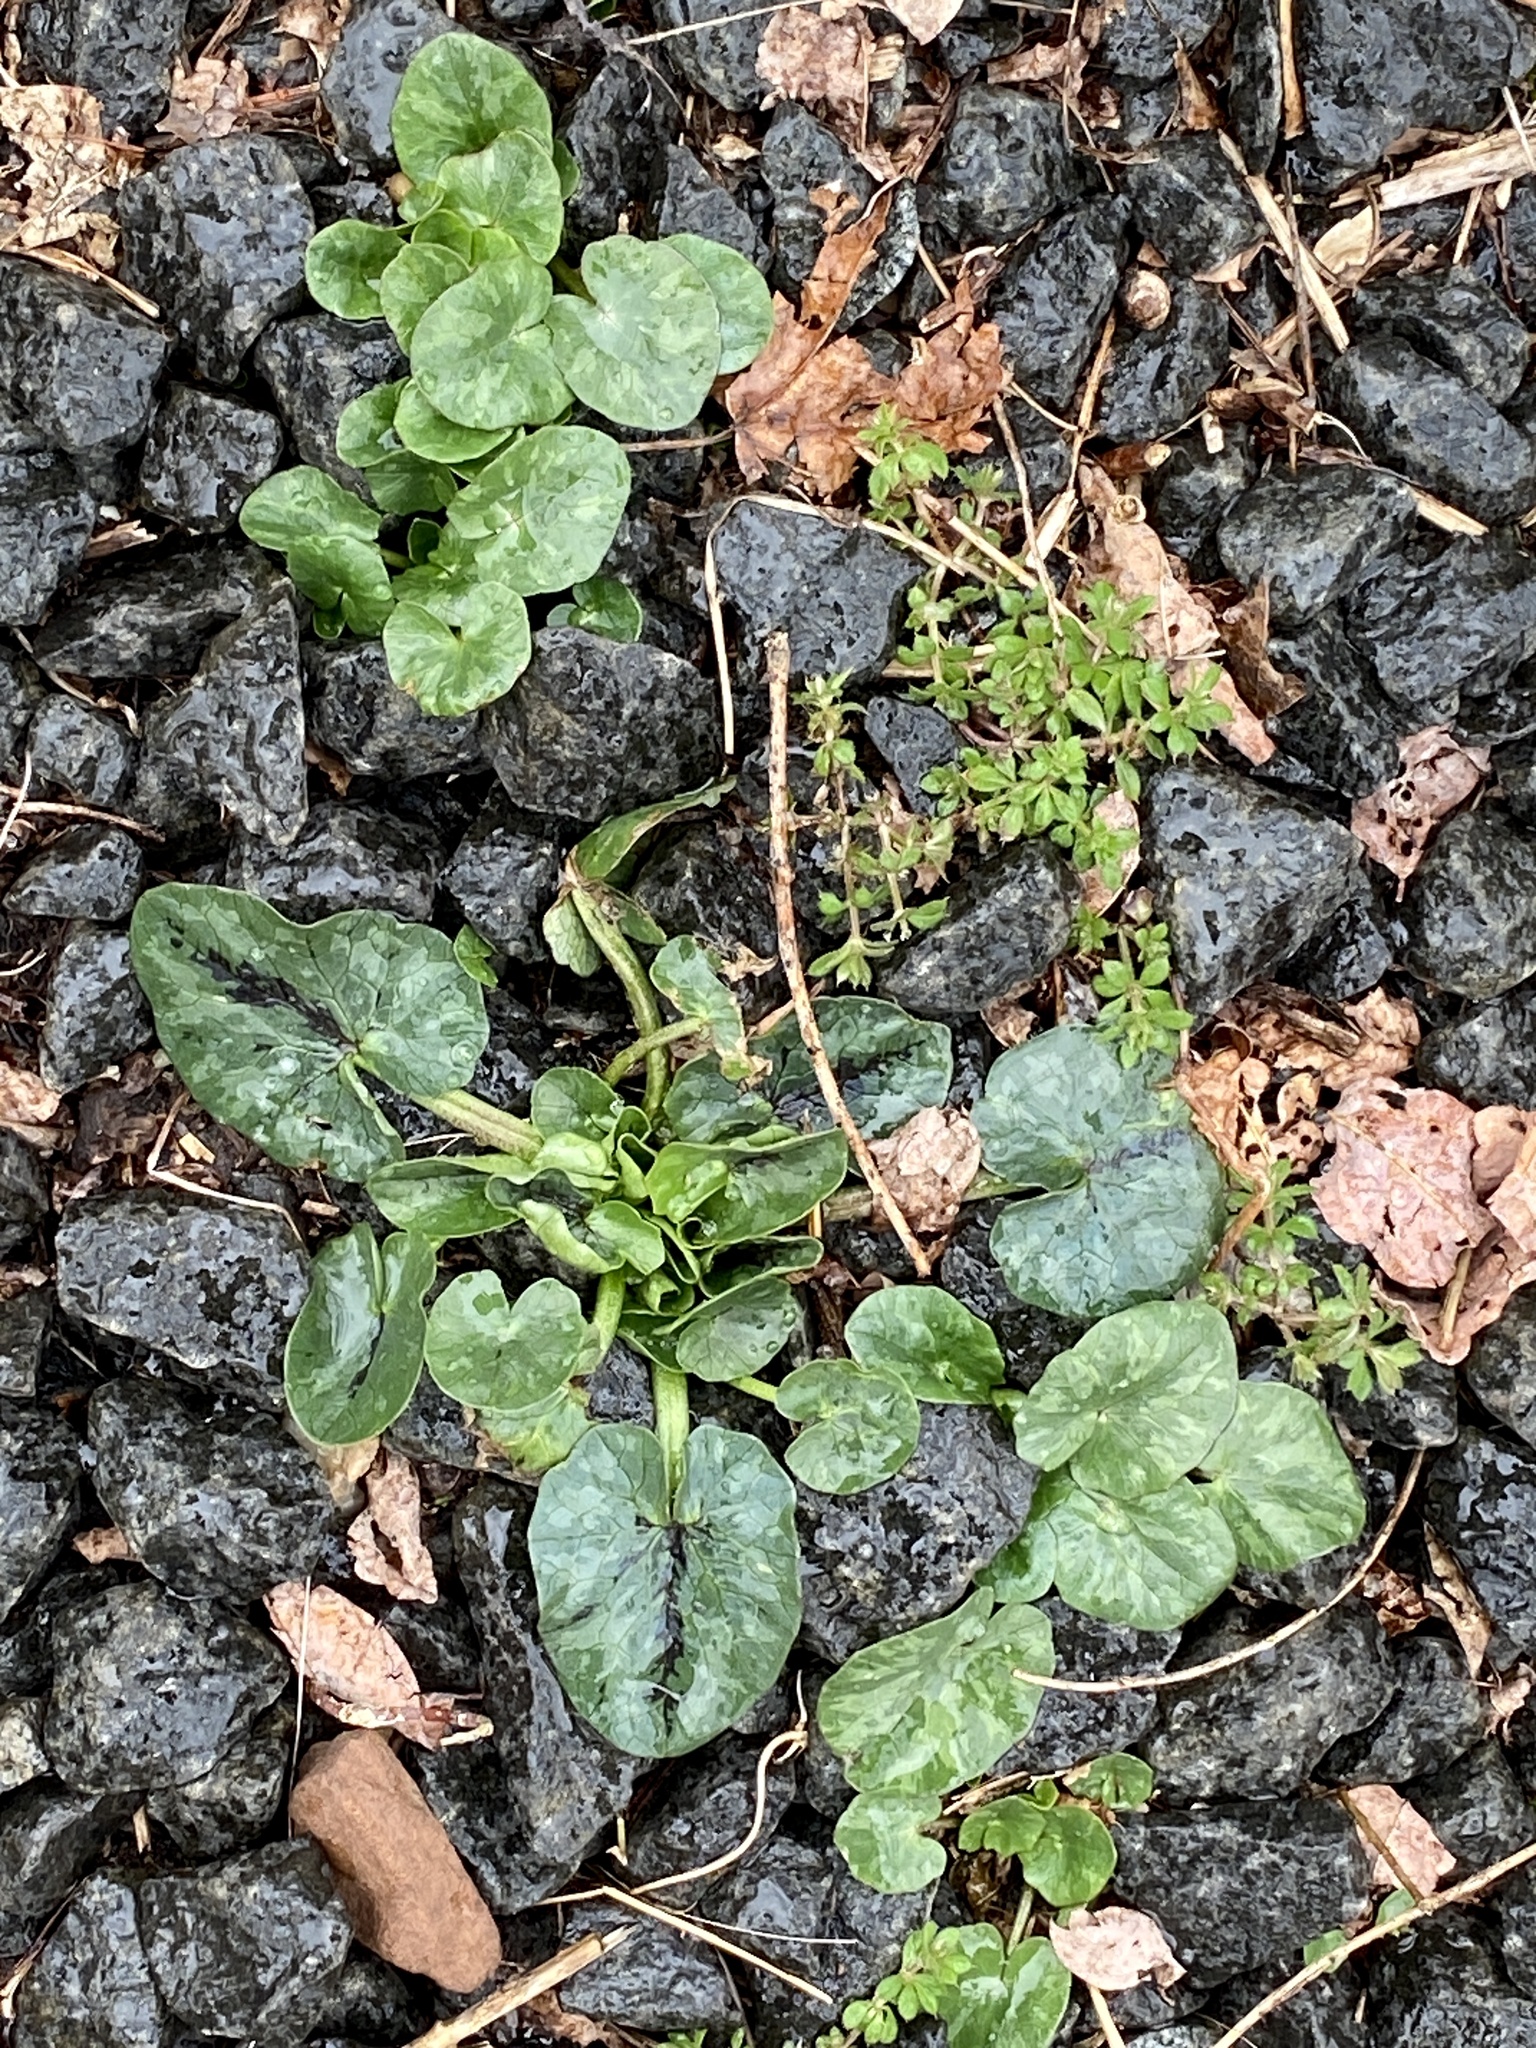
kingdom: Plantae
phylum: Tracheophyta
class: Magnoliopsida
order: Ranunculales
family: Ranunculaceae
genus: Ficaria
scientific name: Ficaria verna
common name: Lesser celandine
